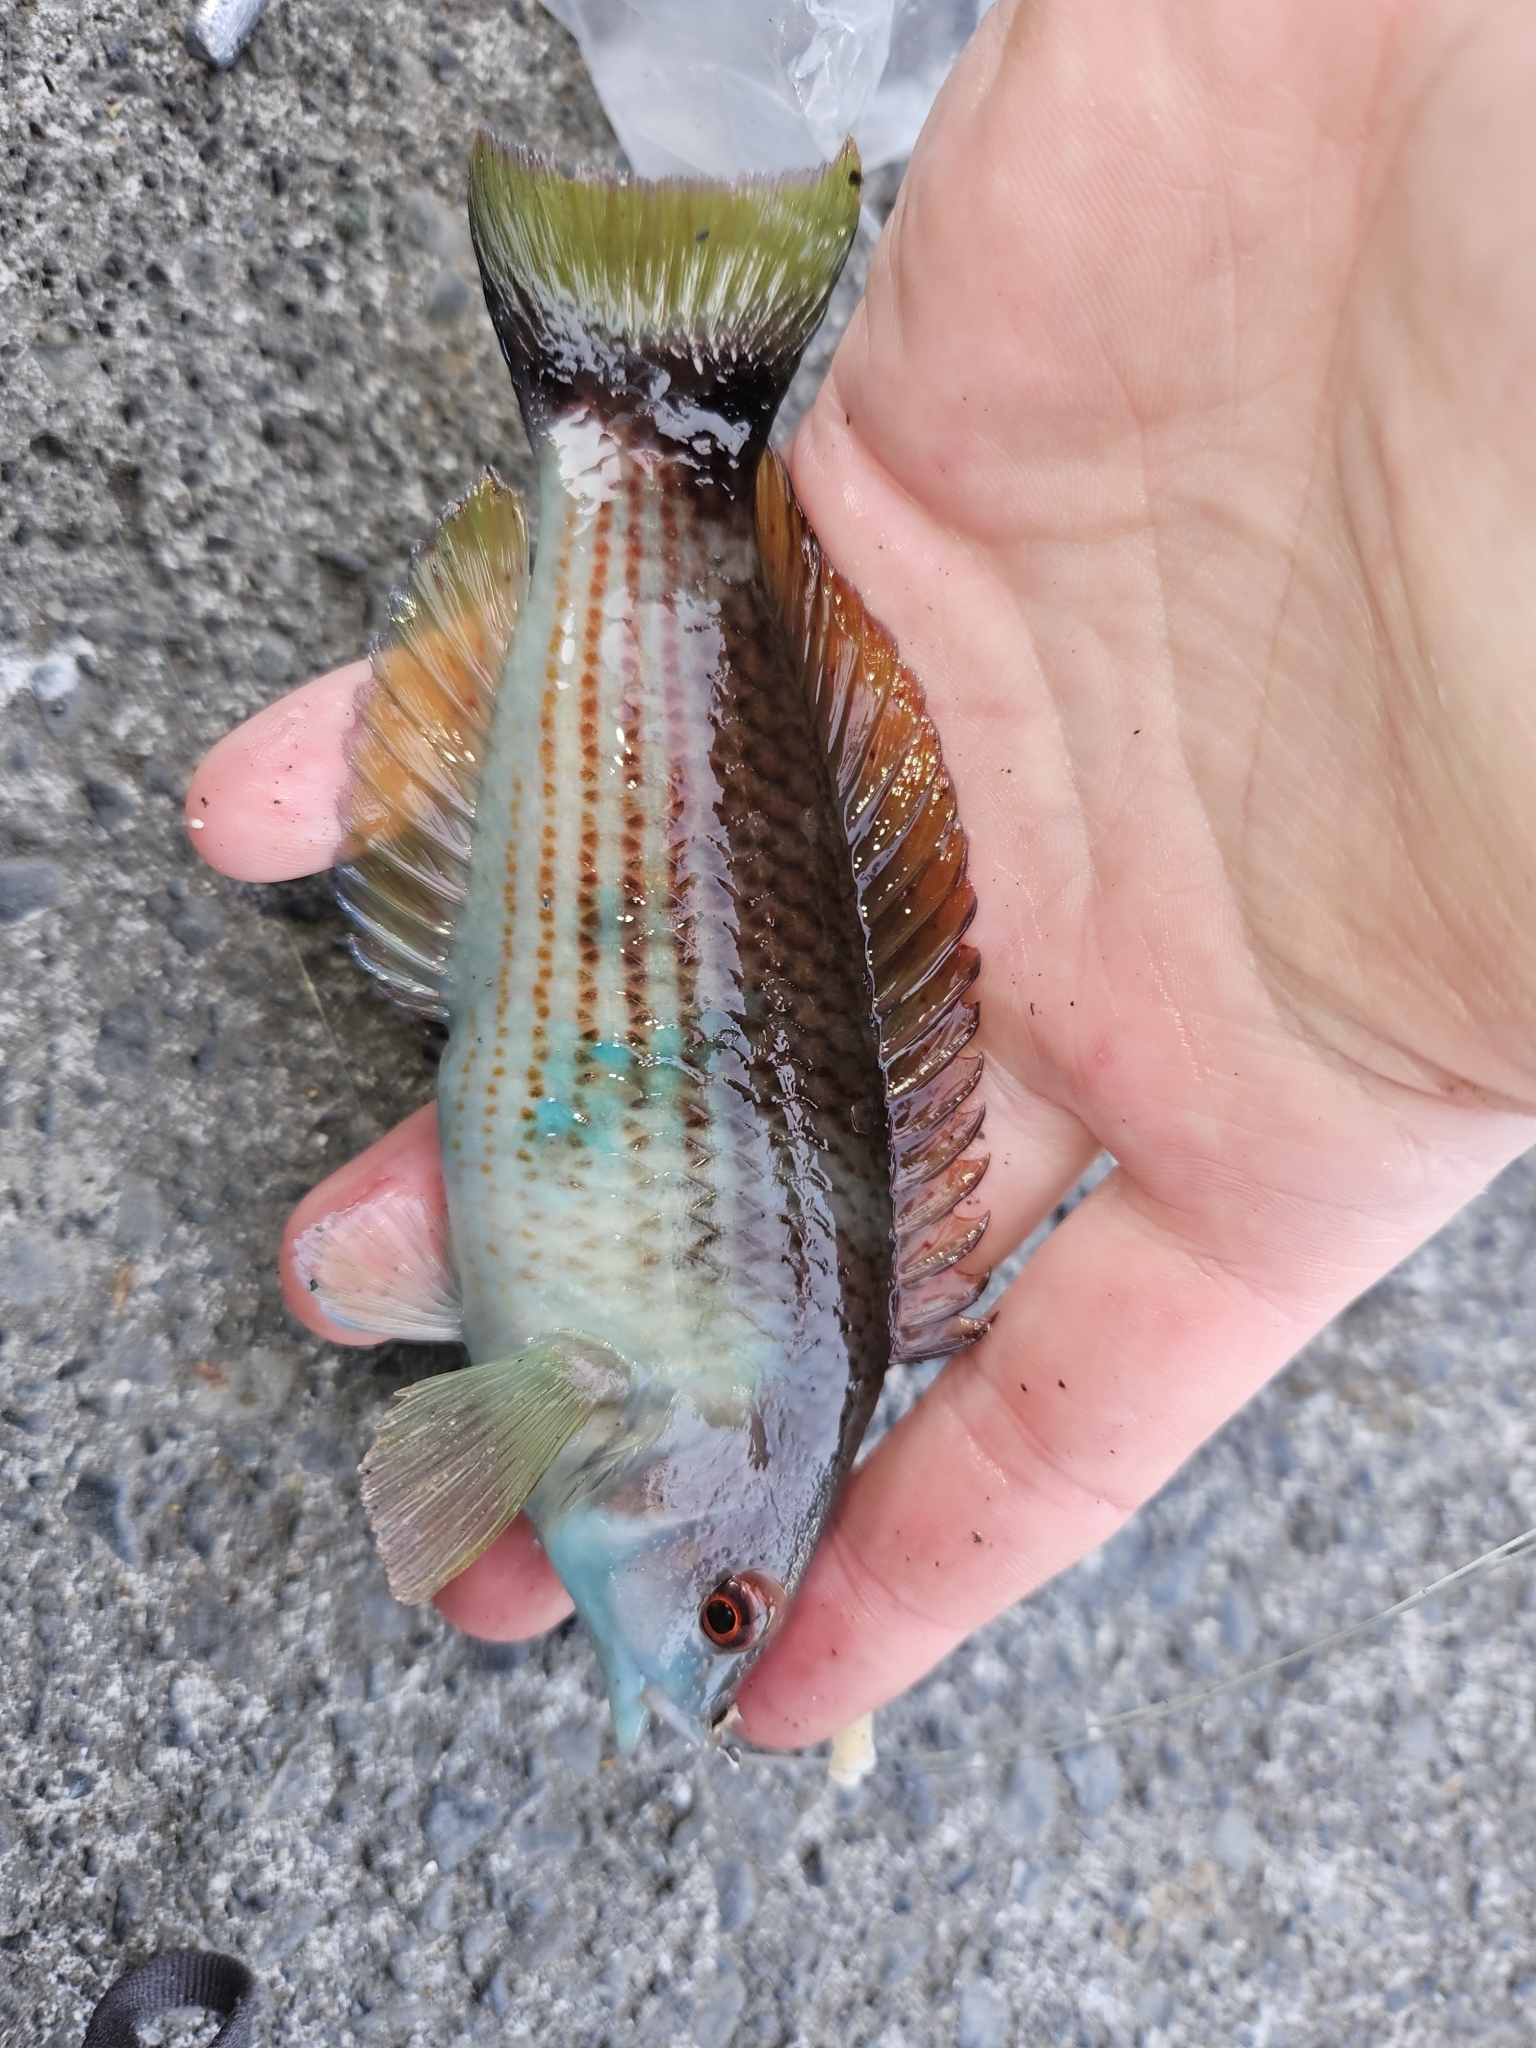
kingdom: Animalia
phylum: Chordata
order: Perciformes
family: Labridae
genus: Pseudolabrus
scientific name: Pseudolabrus miles
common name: Scarlet wrasse
